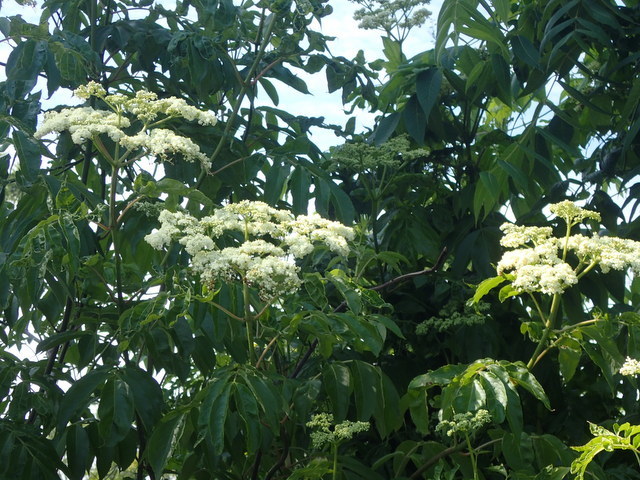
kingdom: Plantae
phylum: Tracheophyta
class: Magnoliopsida
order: Dipsacales
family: Viburnaceae
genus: Sambucus
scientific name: Sambucus canadensis
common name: American elder
